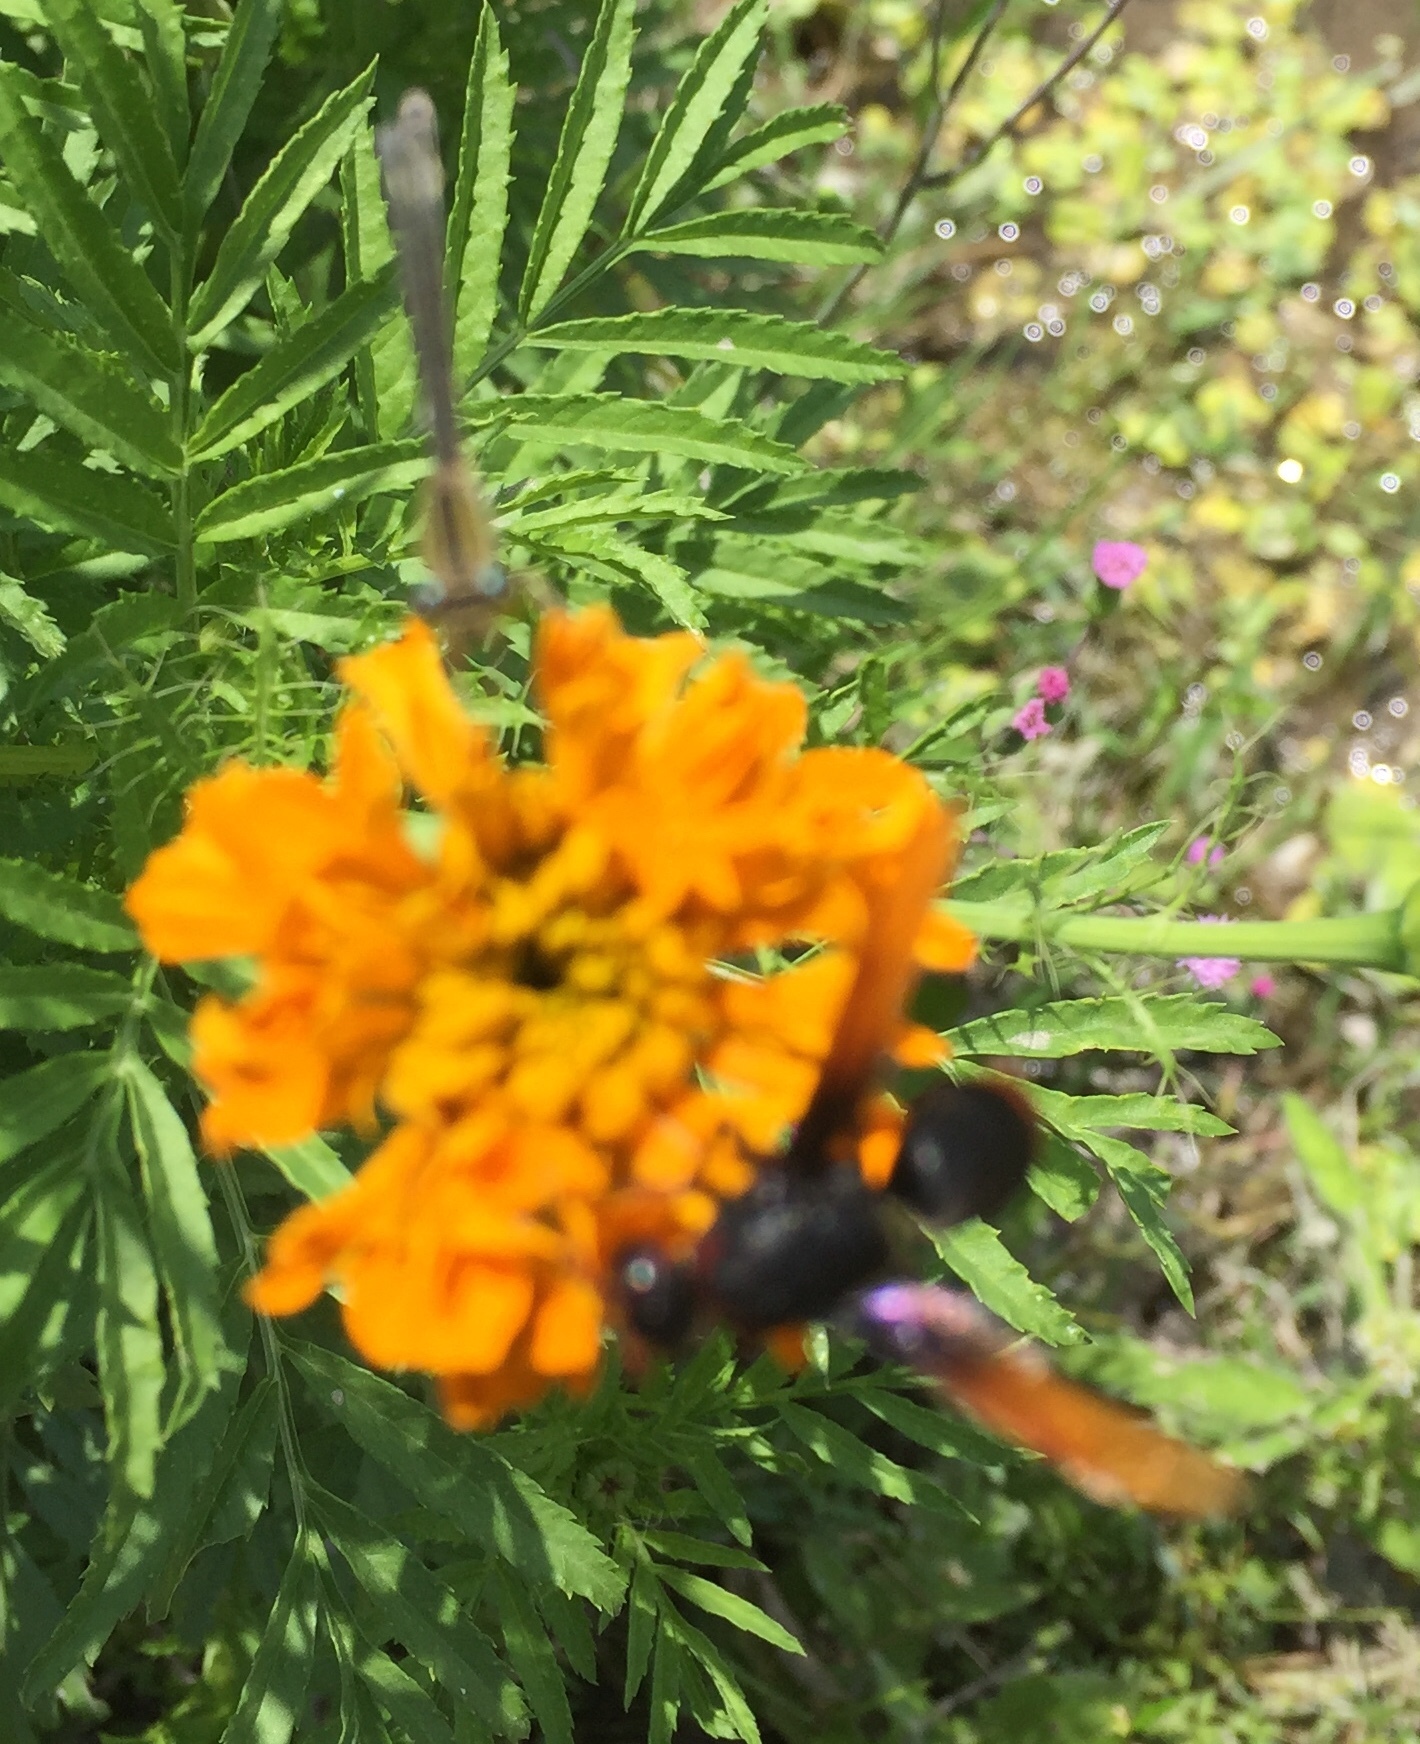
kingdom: Animalia
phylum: Arthropoda
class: Insecta
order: Hymenoptera
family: Eumenidae
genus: Rhynchium
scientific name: Rhynchium haemorrhoidale
